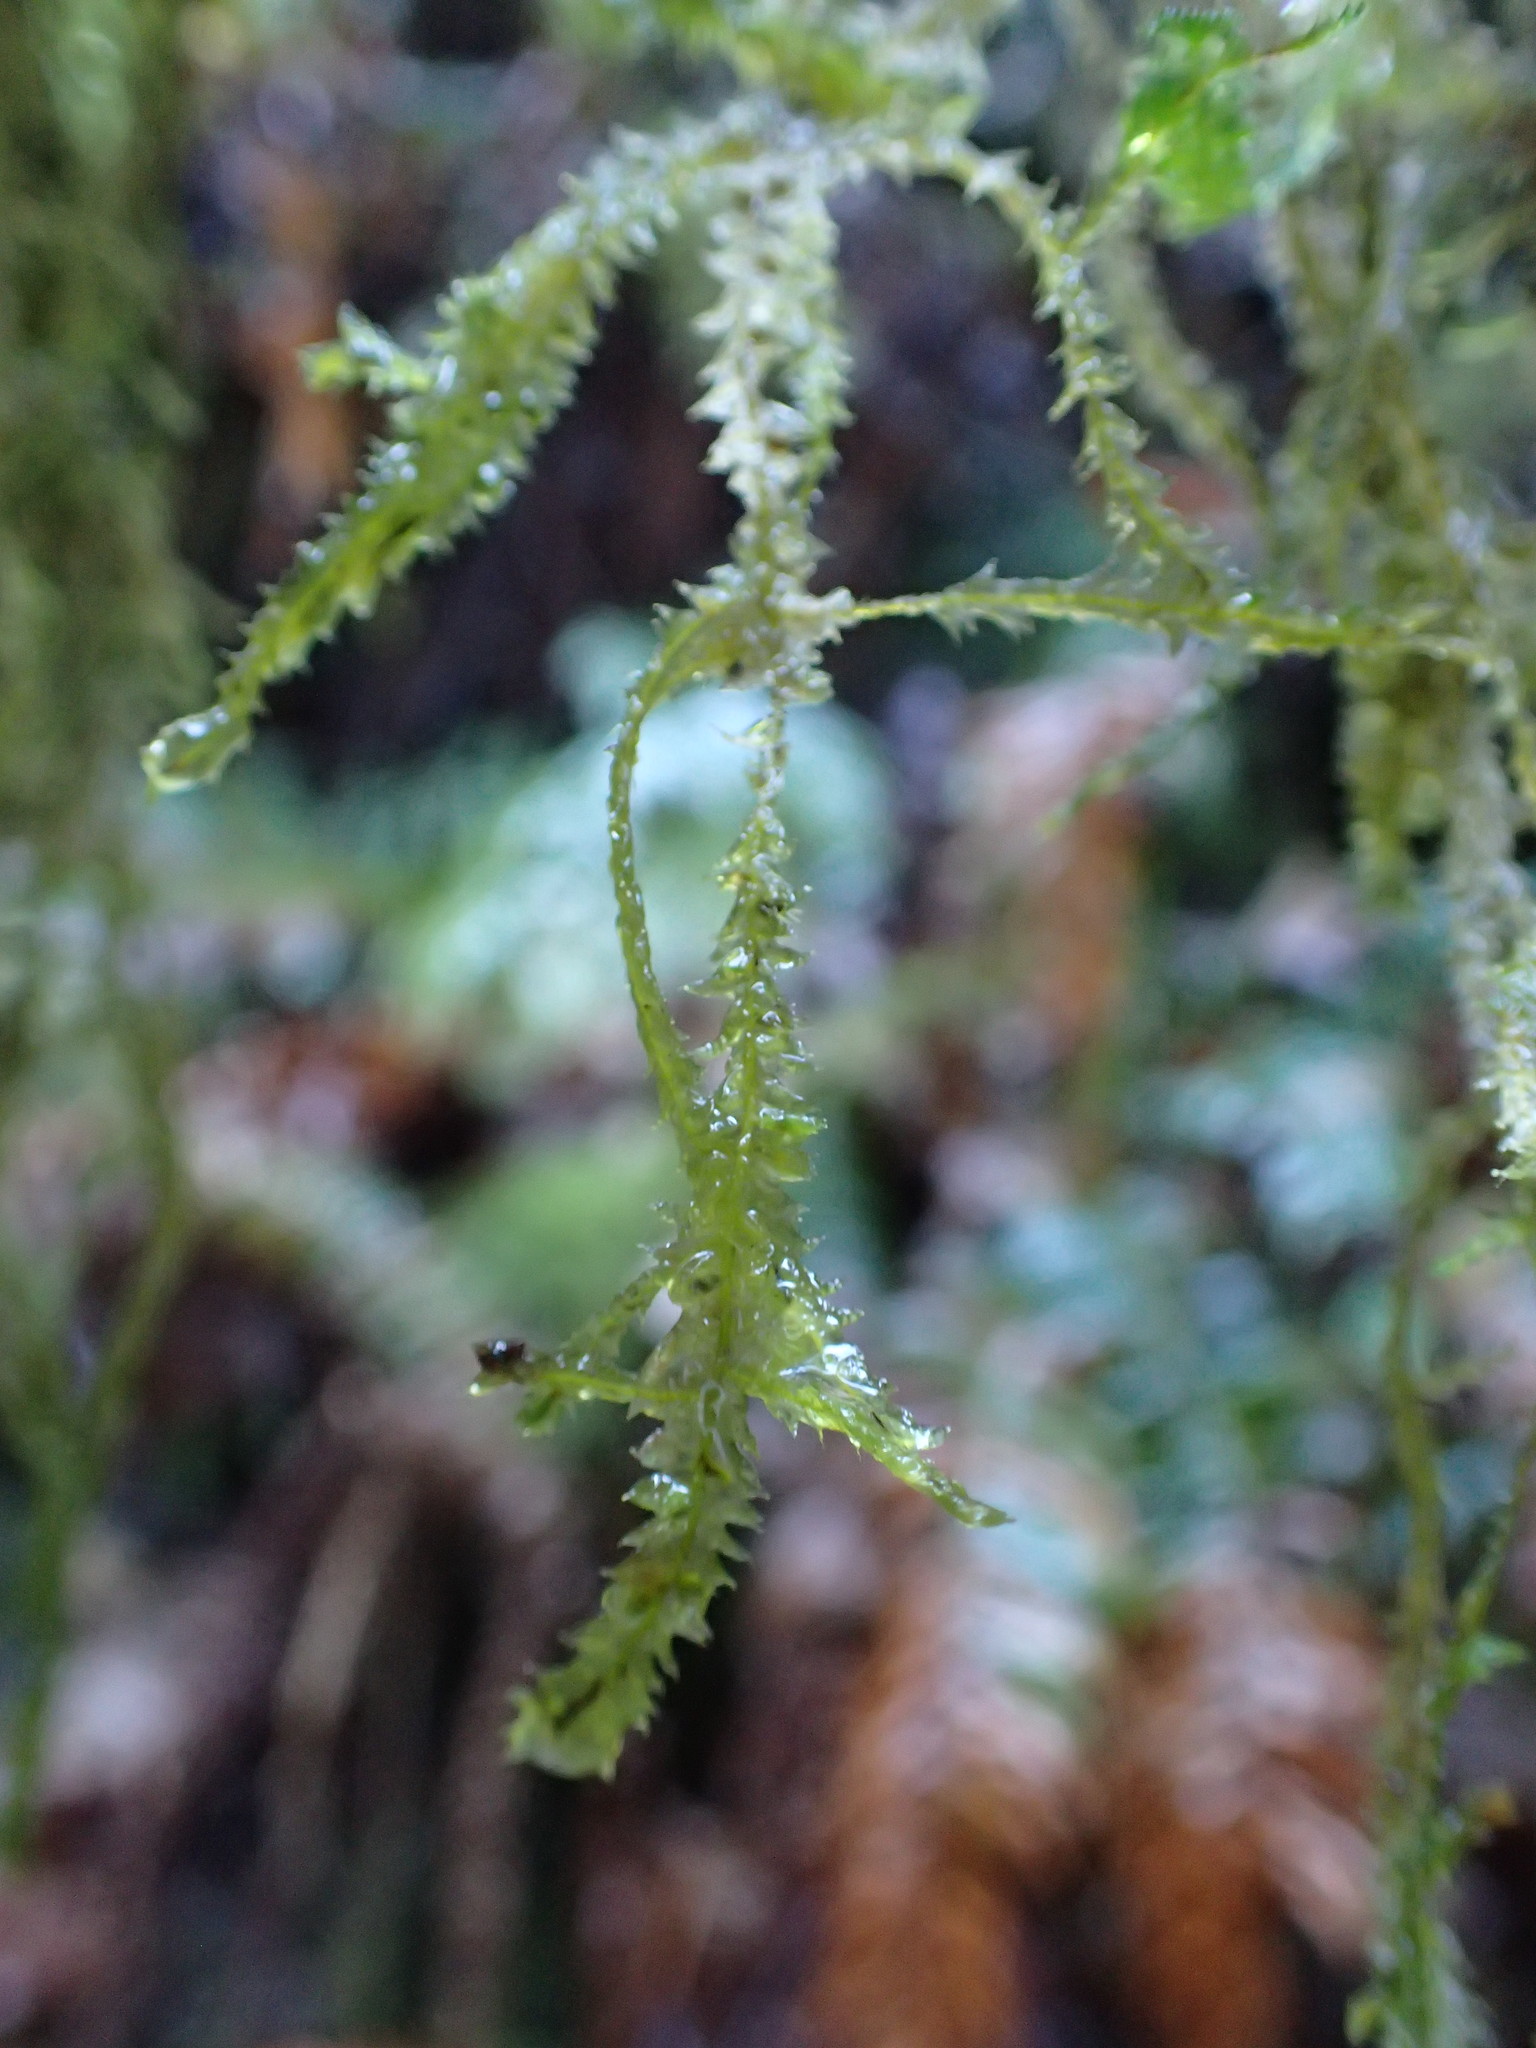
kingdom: Plantae
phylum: Bryophyta
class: Bryopsida
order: Hypnales
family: Neckeraceae
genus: Neckera
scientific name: Neckera douglasii
